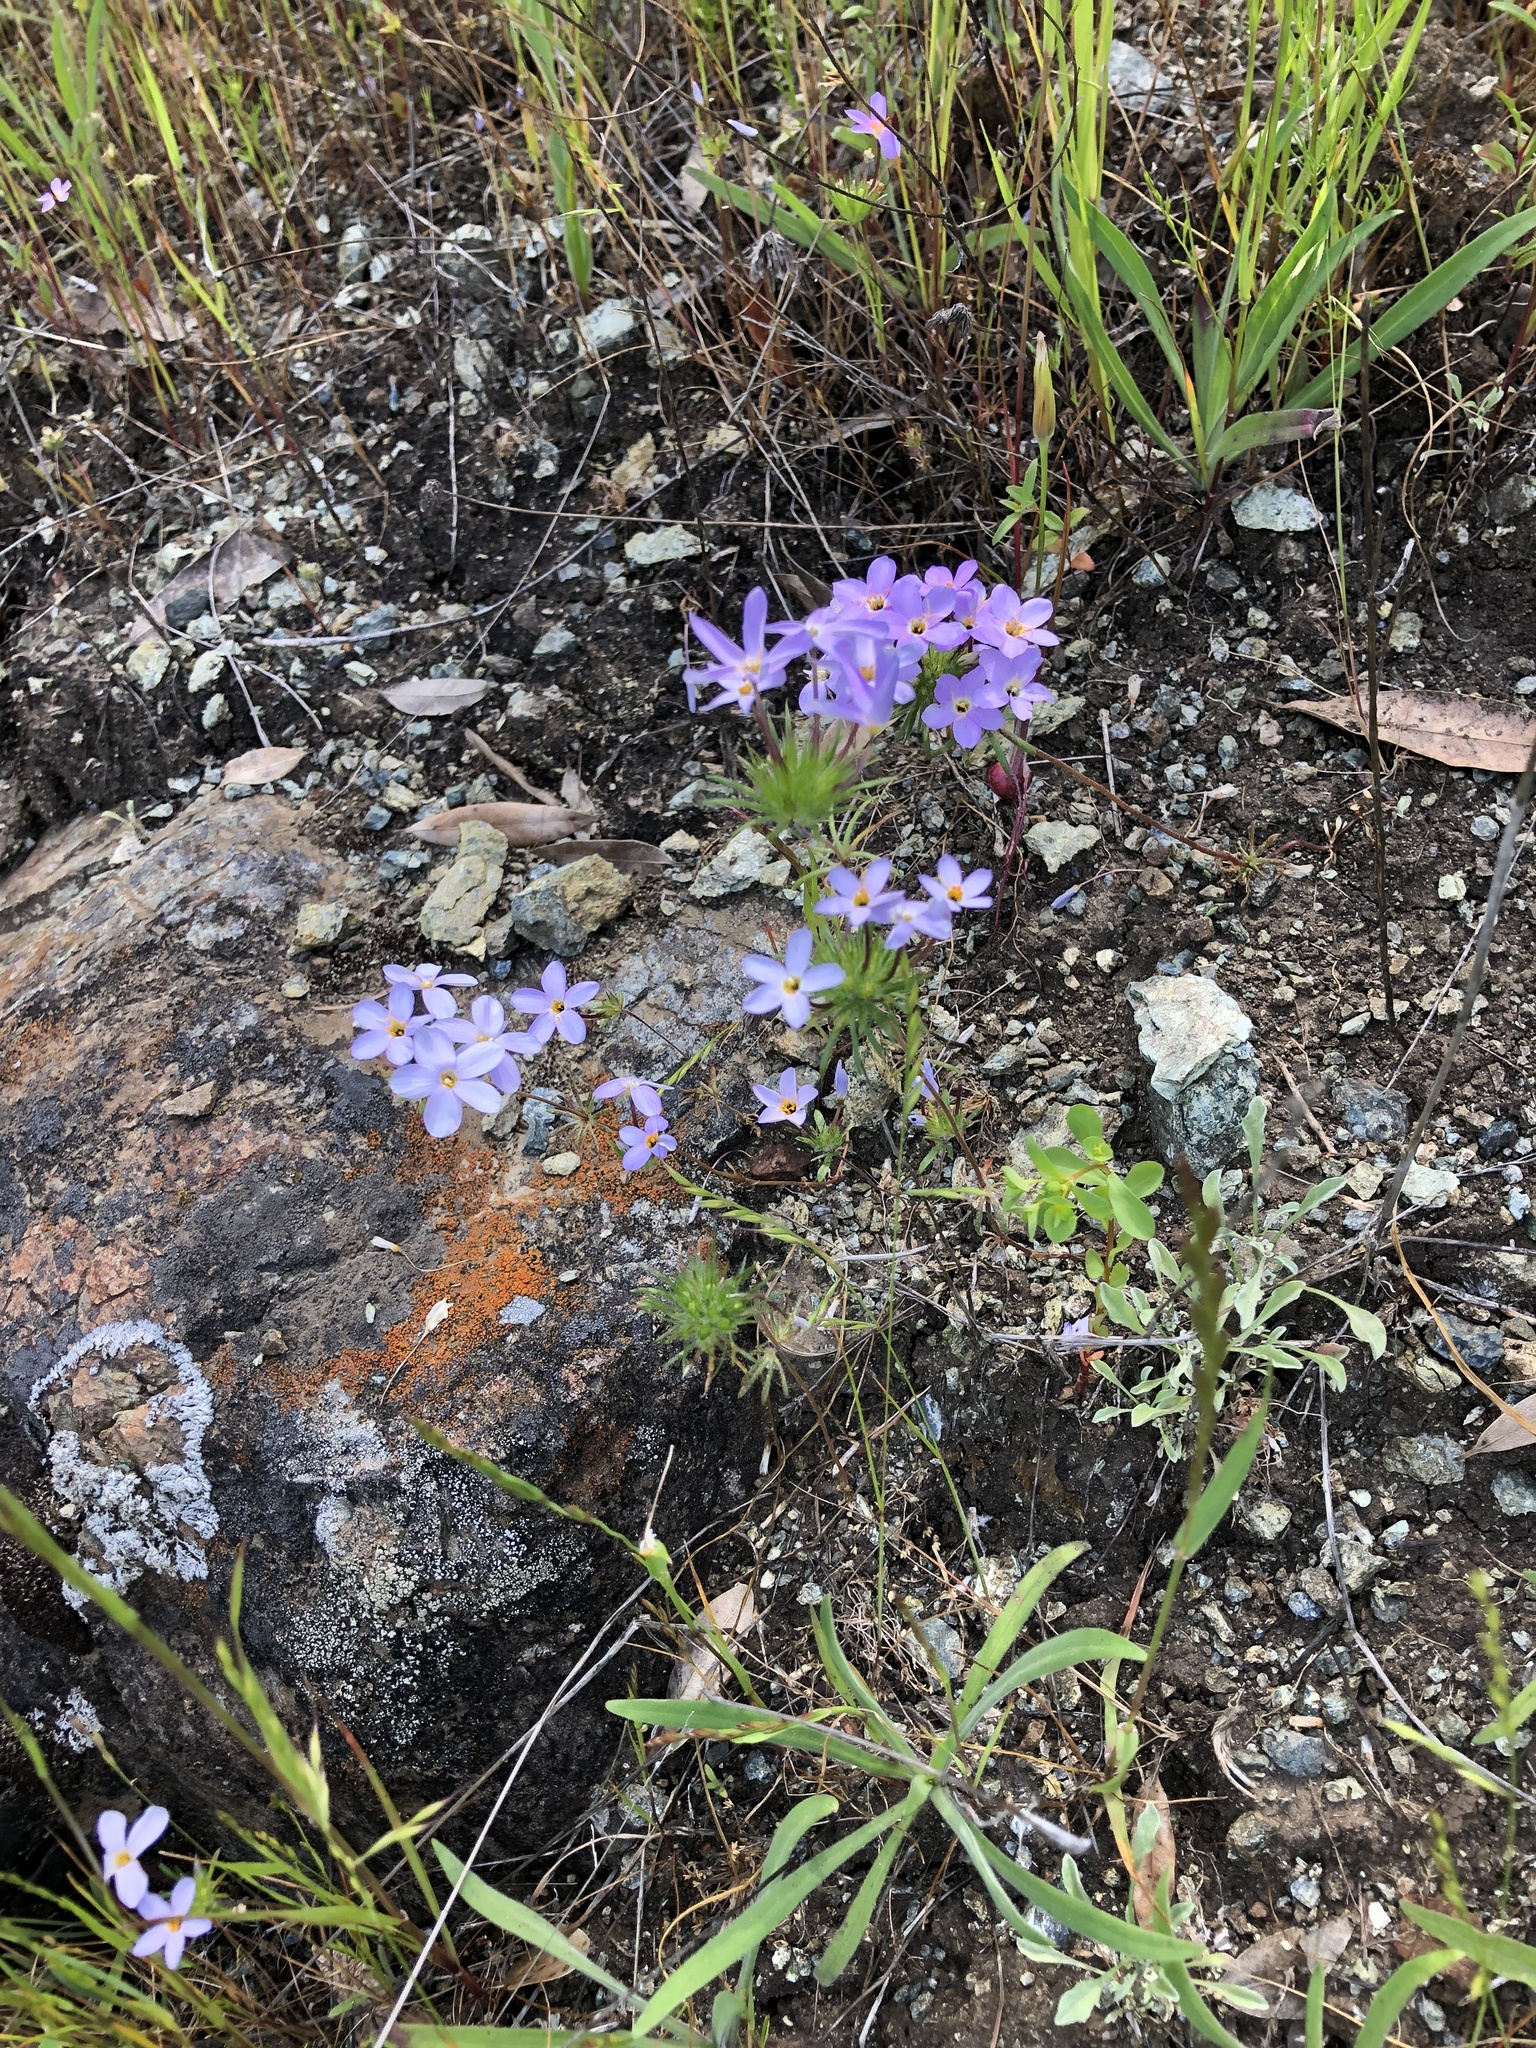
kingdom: Plantae
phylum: Tracheophyta
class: Magnoliopsida
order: Ericales
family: Polemoniaceae
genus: Leptosiphon
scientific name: Leptosiphon androsaceus
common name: False babystars
